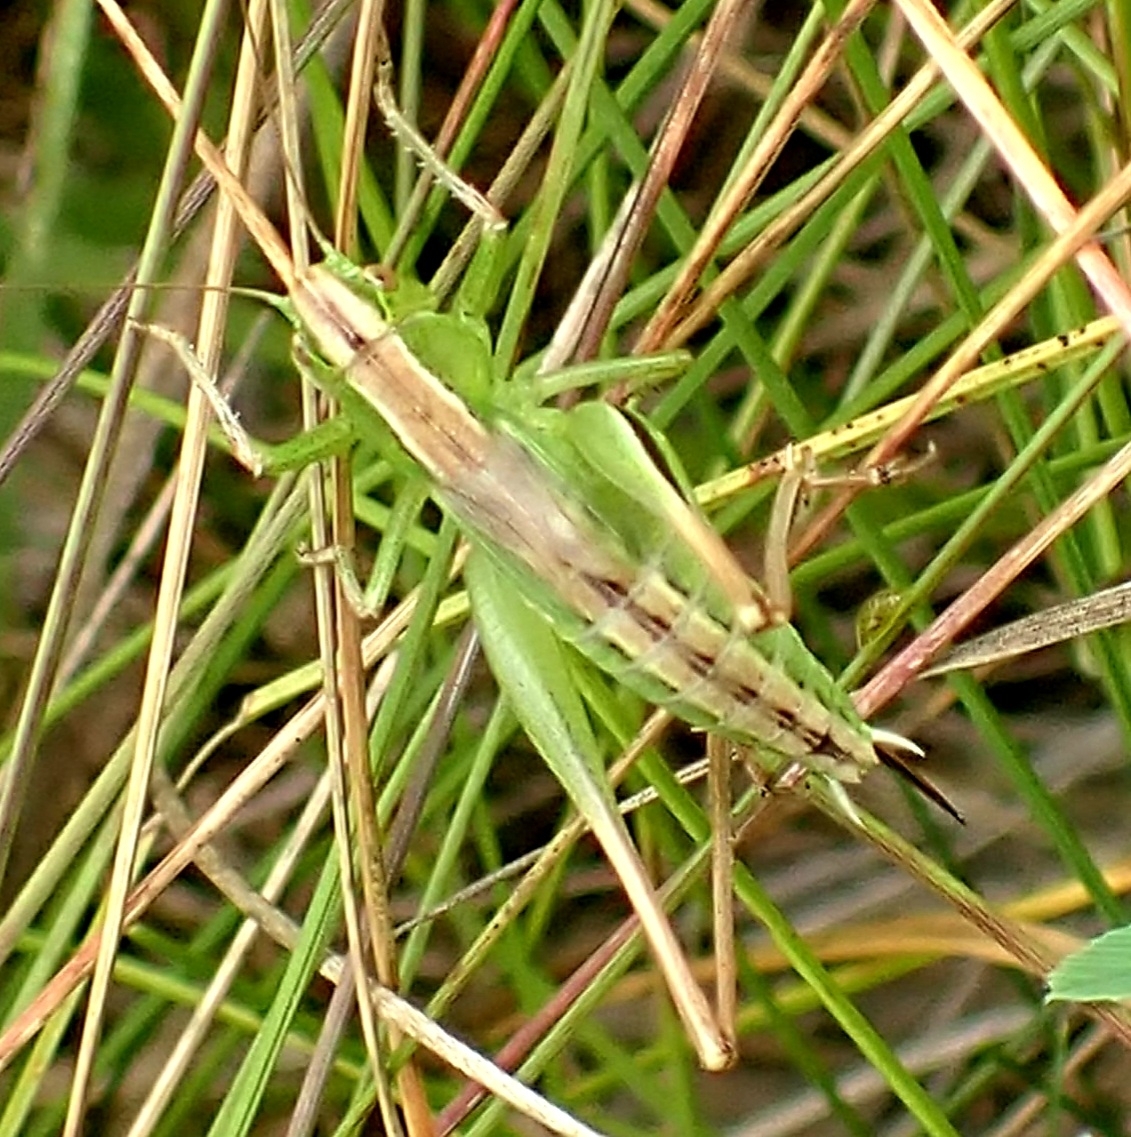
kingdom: Animalia
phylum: Arthropoda
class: Insecta
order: Orthoptera
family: Tettigoniidae
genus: Bicolorana
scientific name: Bicolorana bicolor
